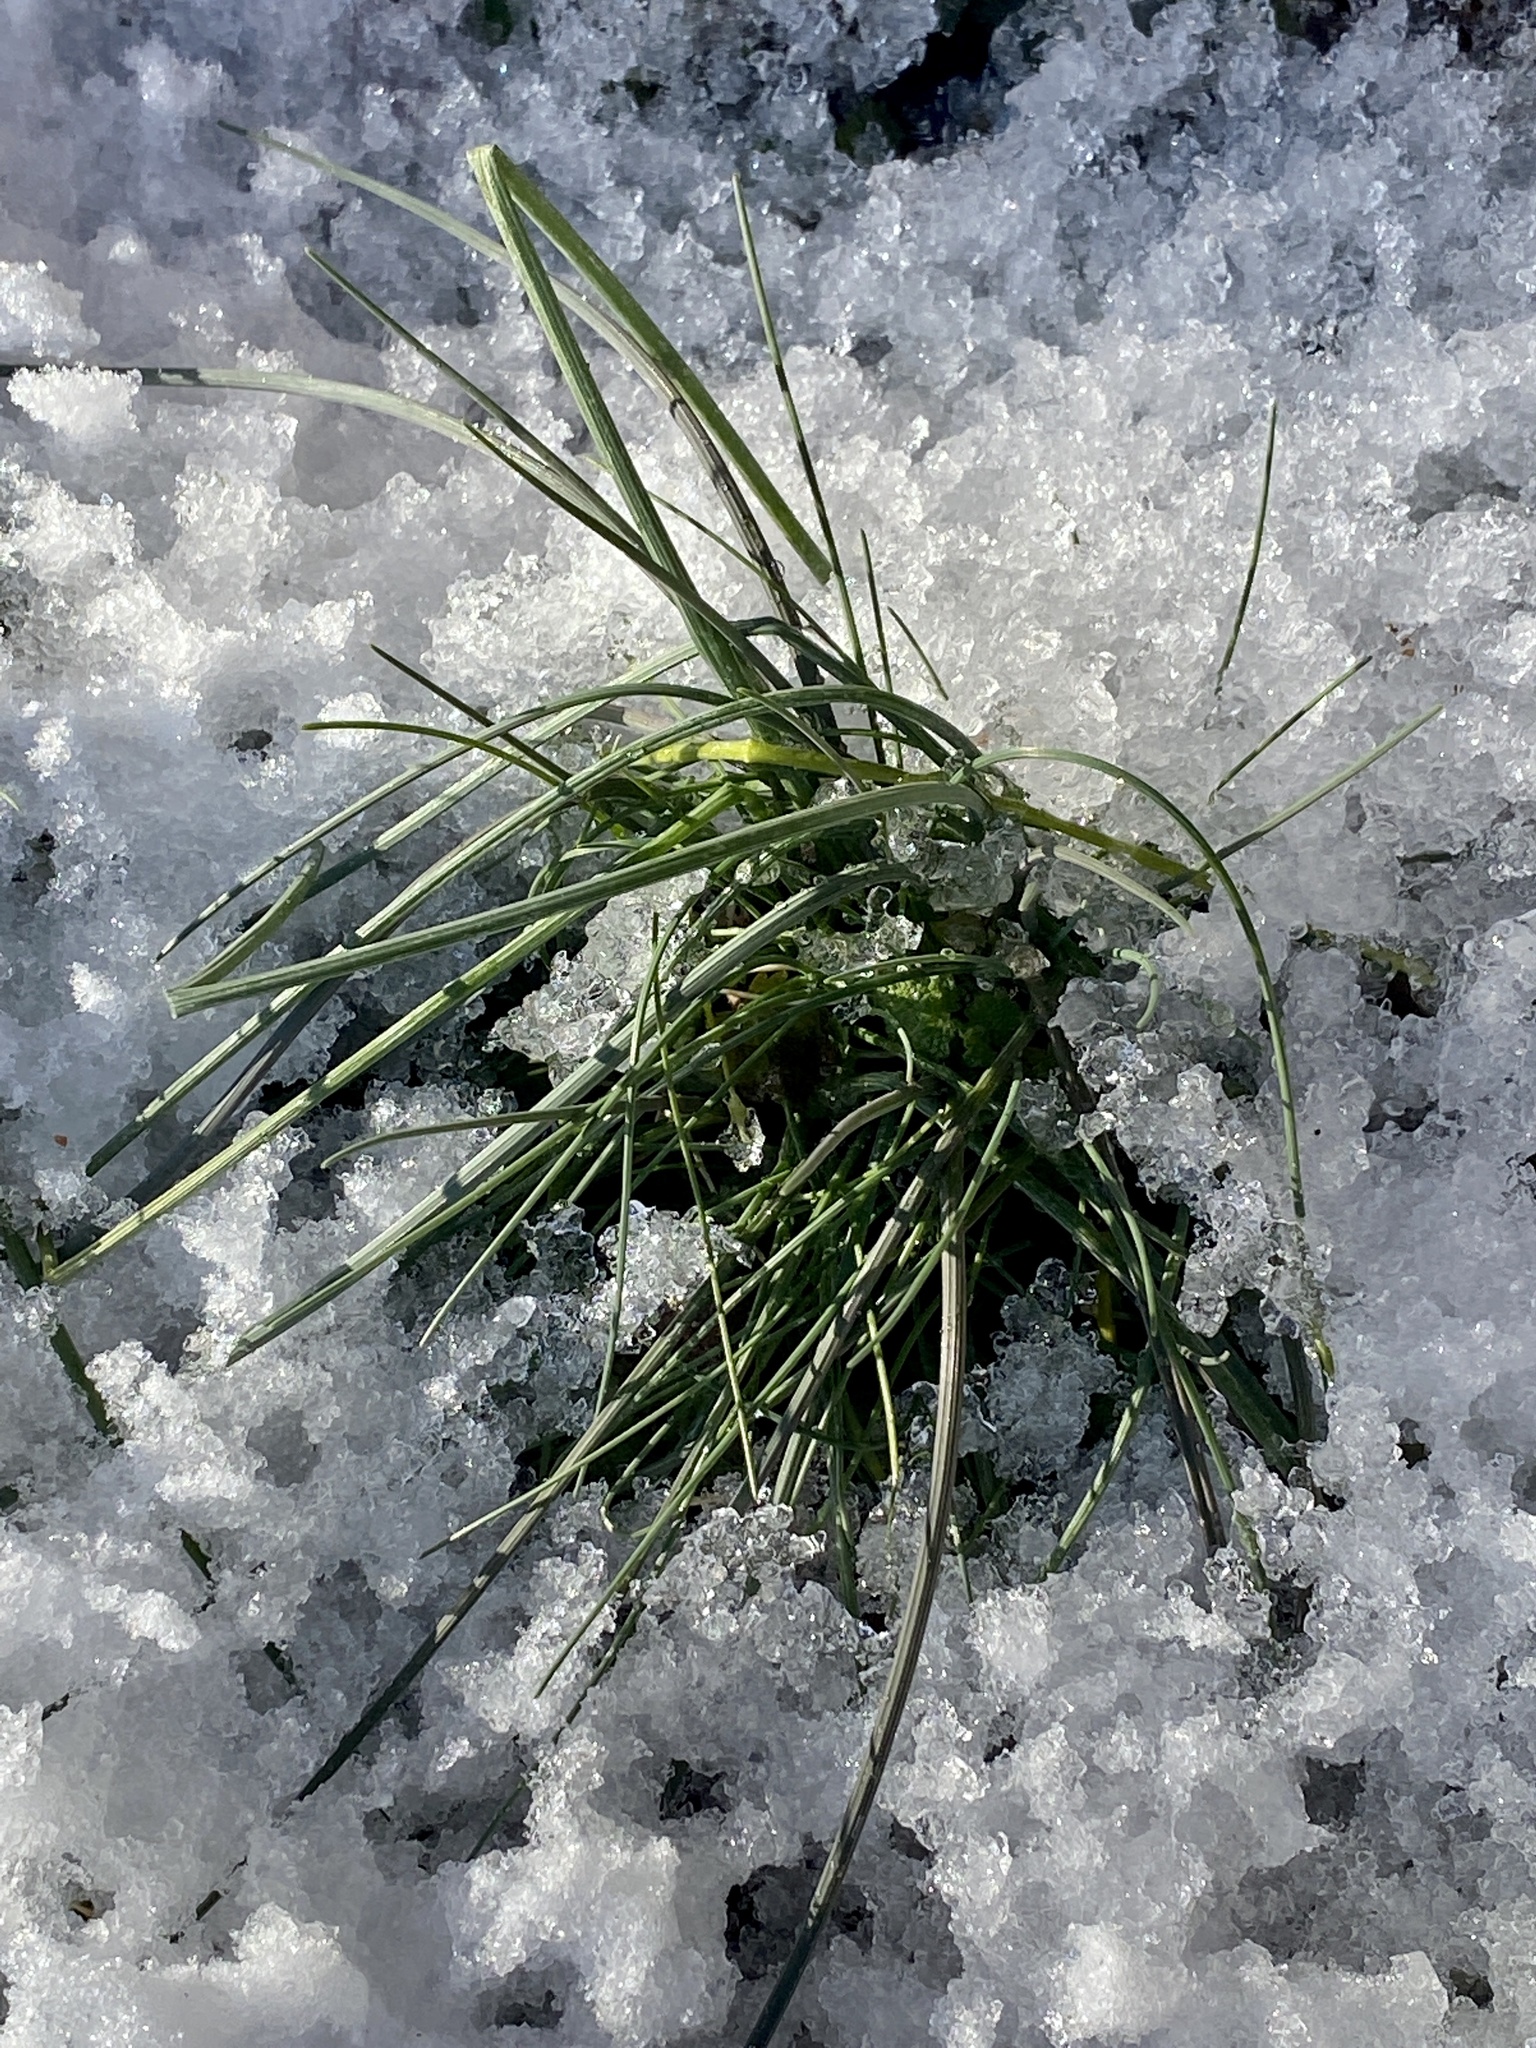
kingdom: Plantae
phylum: Tracheophyta
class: Liliopsida
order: Asparagales
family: Amaryllidaceae
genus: Allium
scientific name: Allium vineale
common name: Crow garlic
